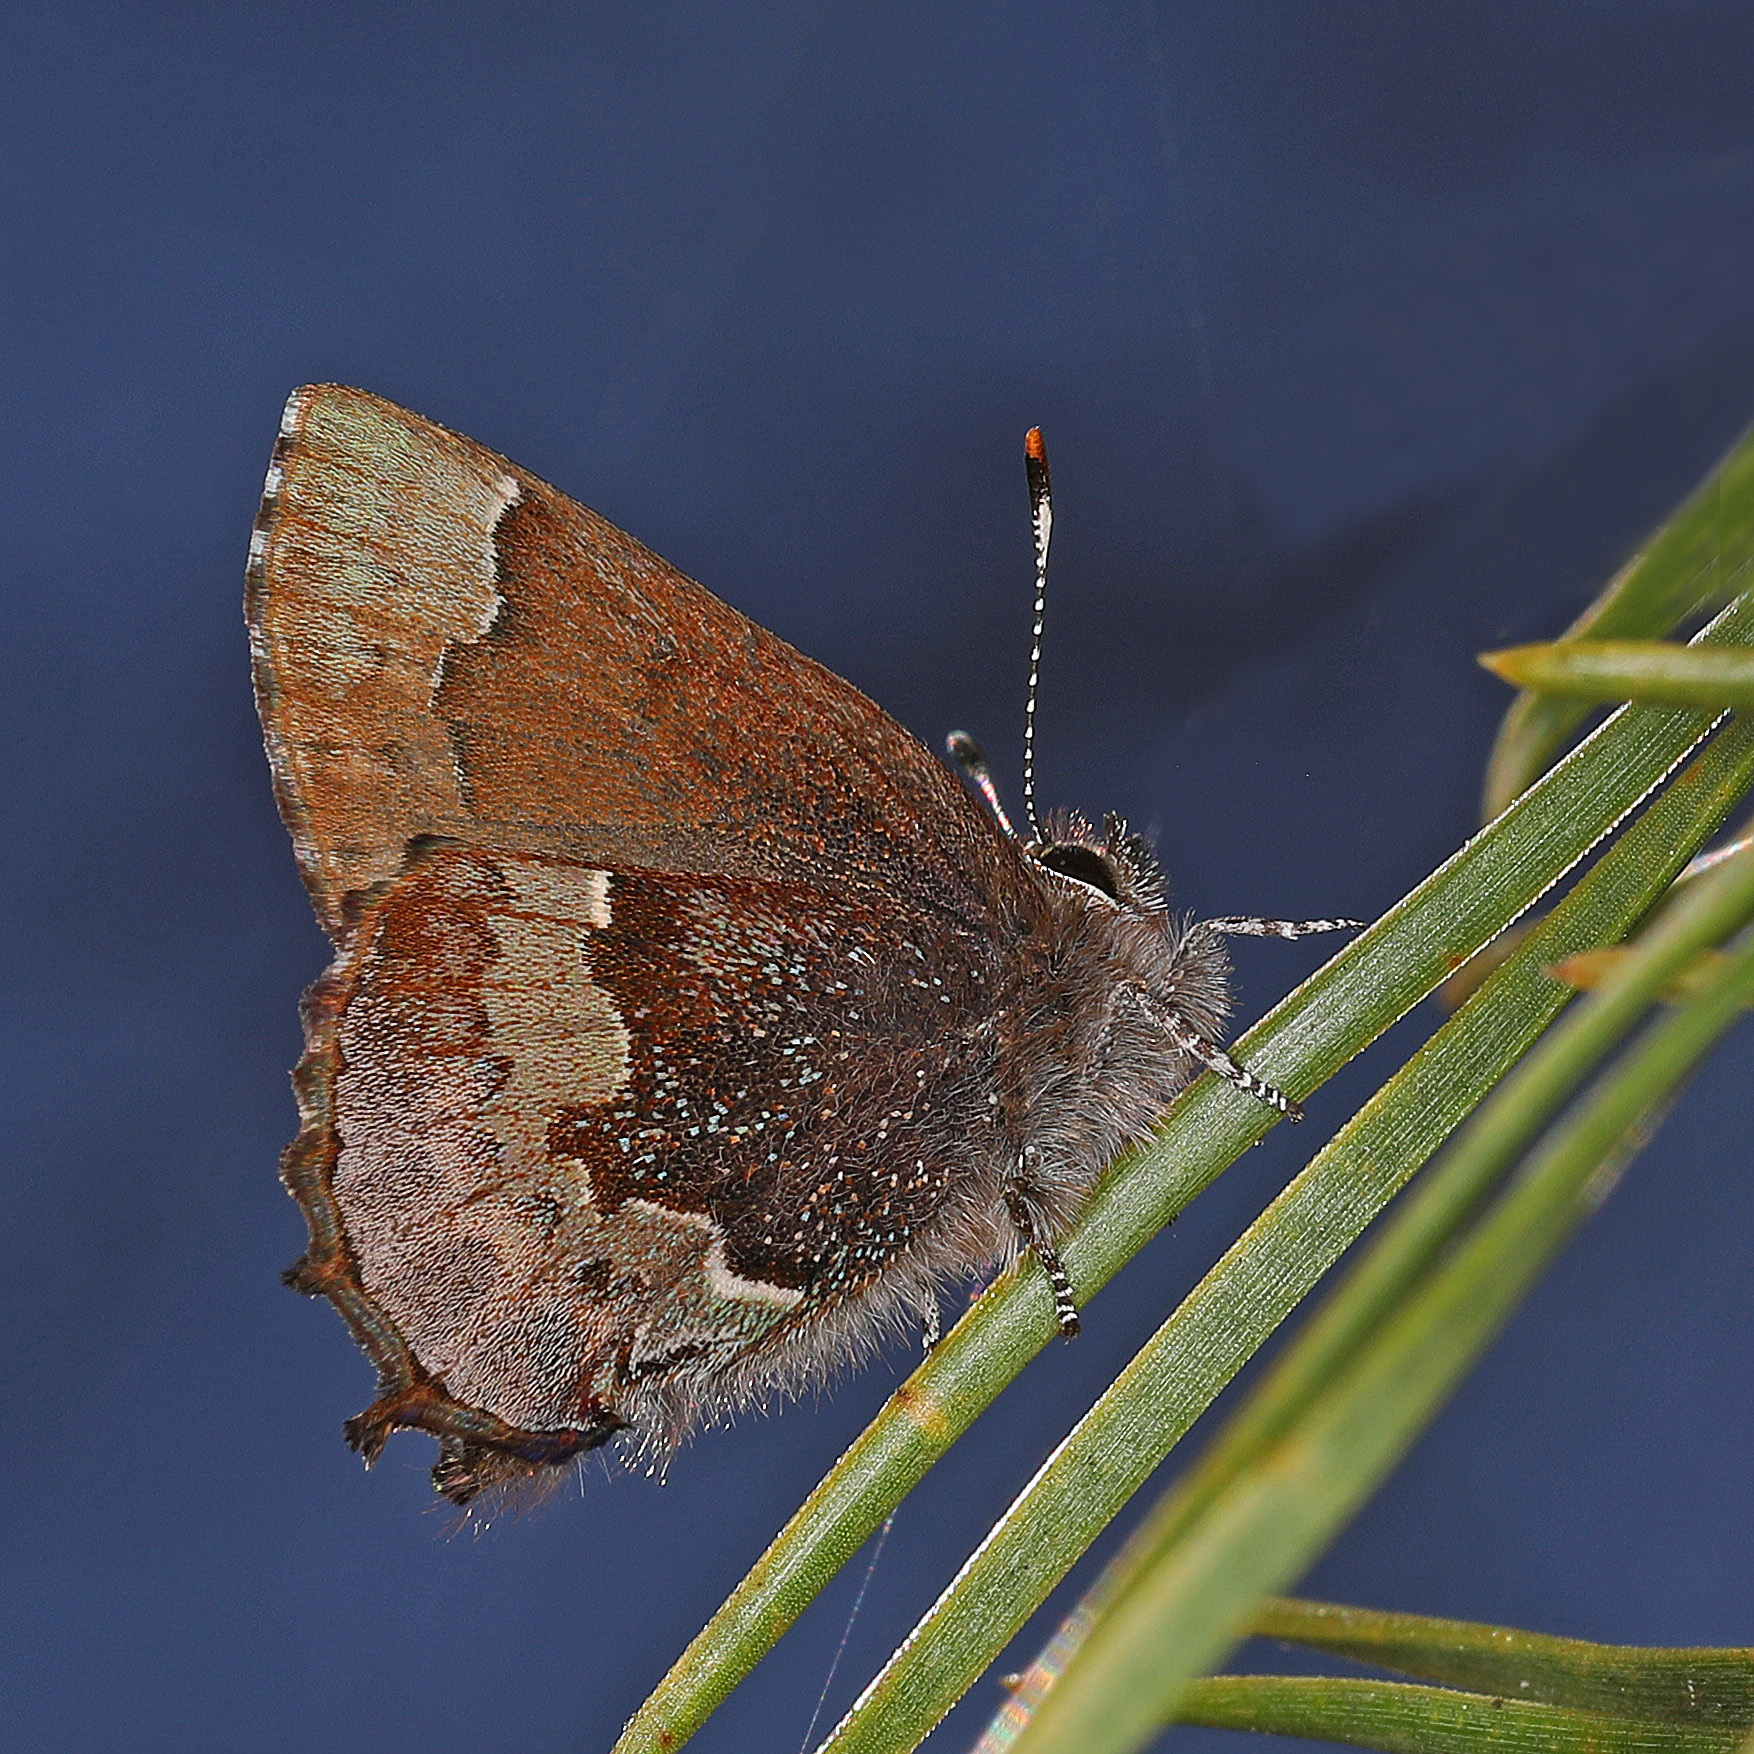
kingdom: Animalia
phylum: Arthropoda
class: Insecta
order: Lepidoptera
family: Lycaenidae
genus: Incisalia
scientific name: Incisalia henrici
